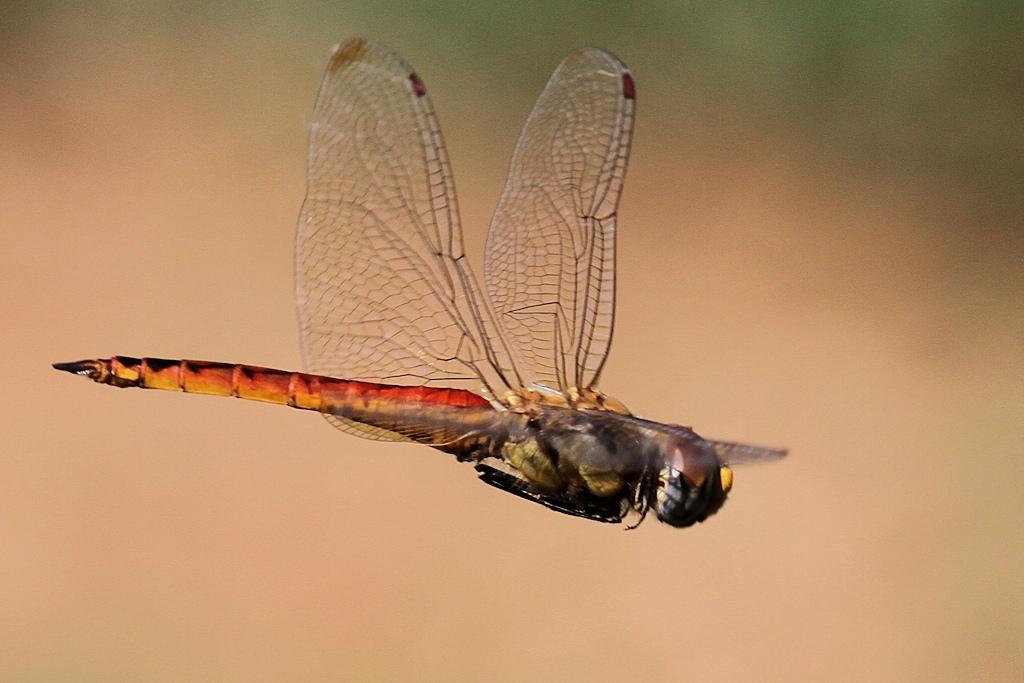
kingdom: Animalia
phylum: Arthropoda
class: Insecta
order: Odonata
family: Libellulidae
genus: Pantala
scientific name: Pantala flavescens
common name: Wandering glider
